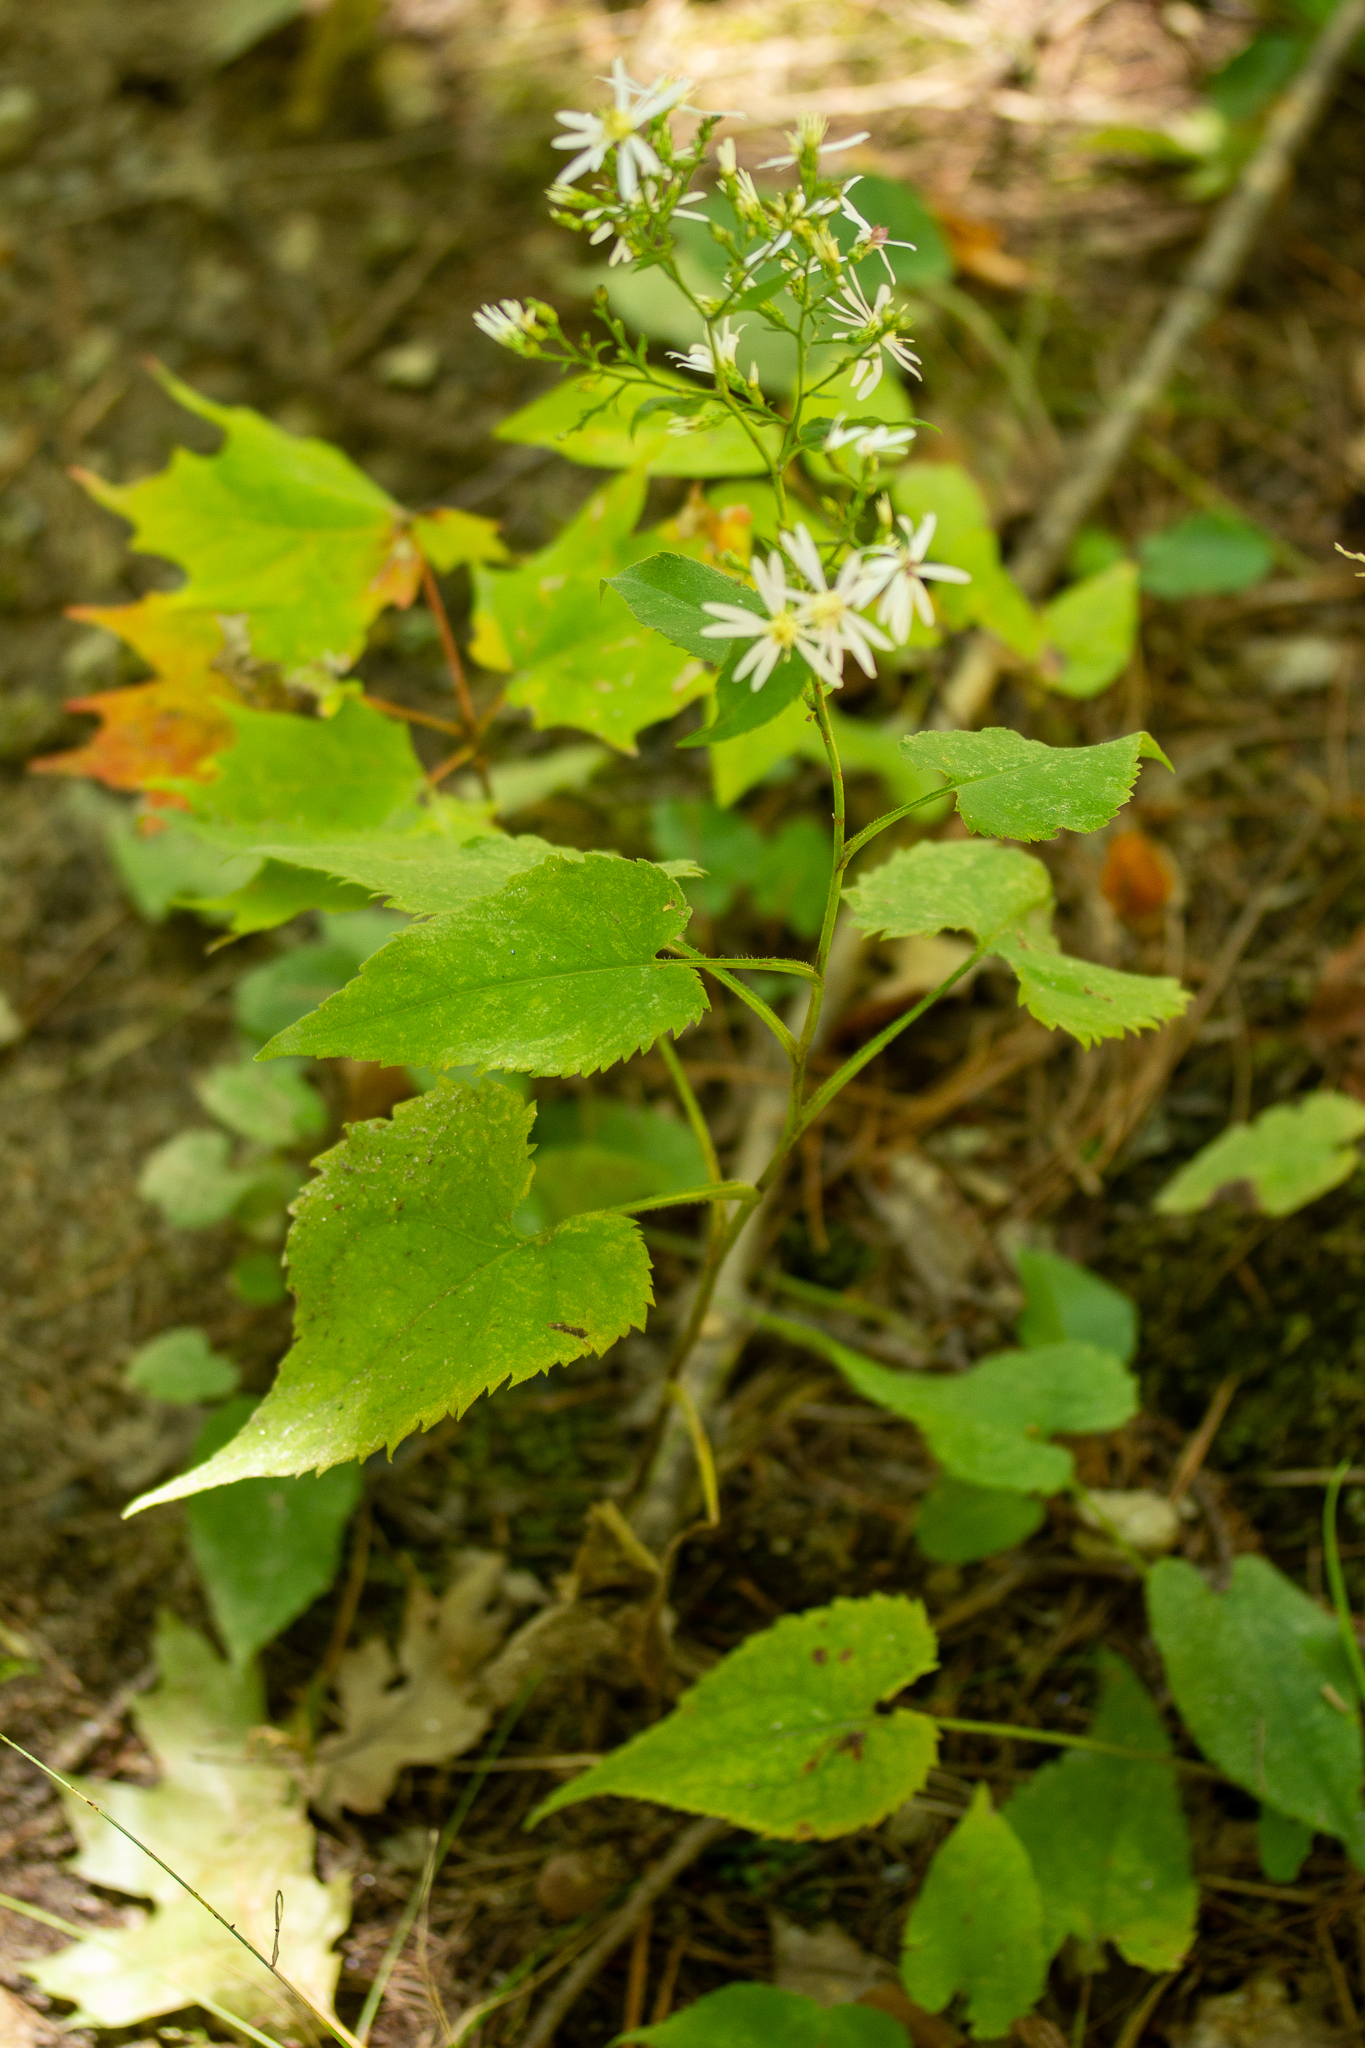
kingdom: Plantae
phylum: Tracheophyta
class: Magnoliopsida
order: Asterales
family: Asteraceae
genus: Symphyotrichum
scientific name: Symphyotrichum cordifolium
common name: Beeweed
